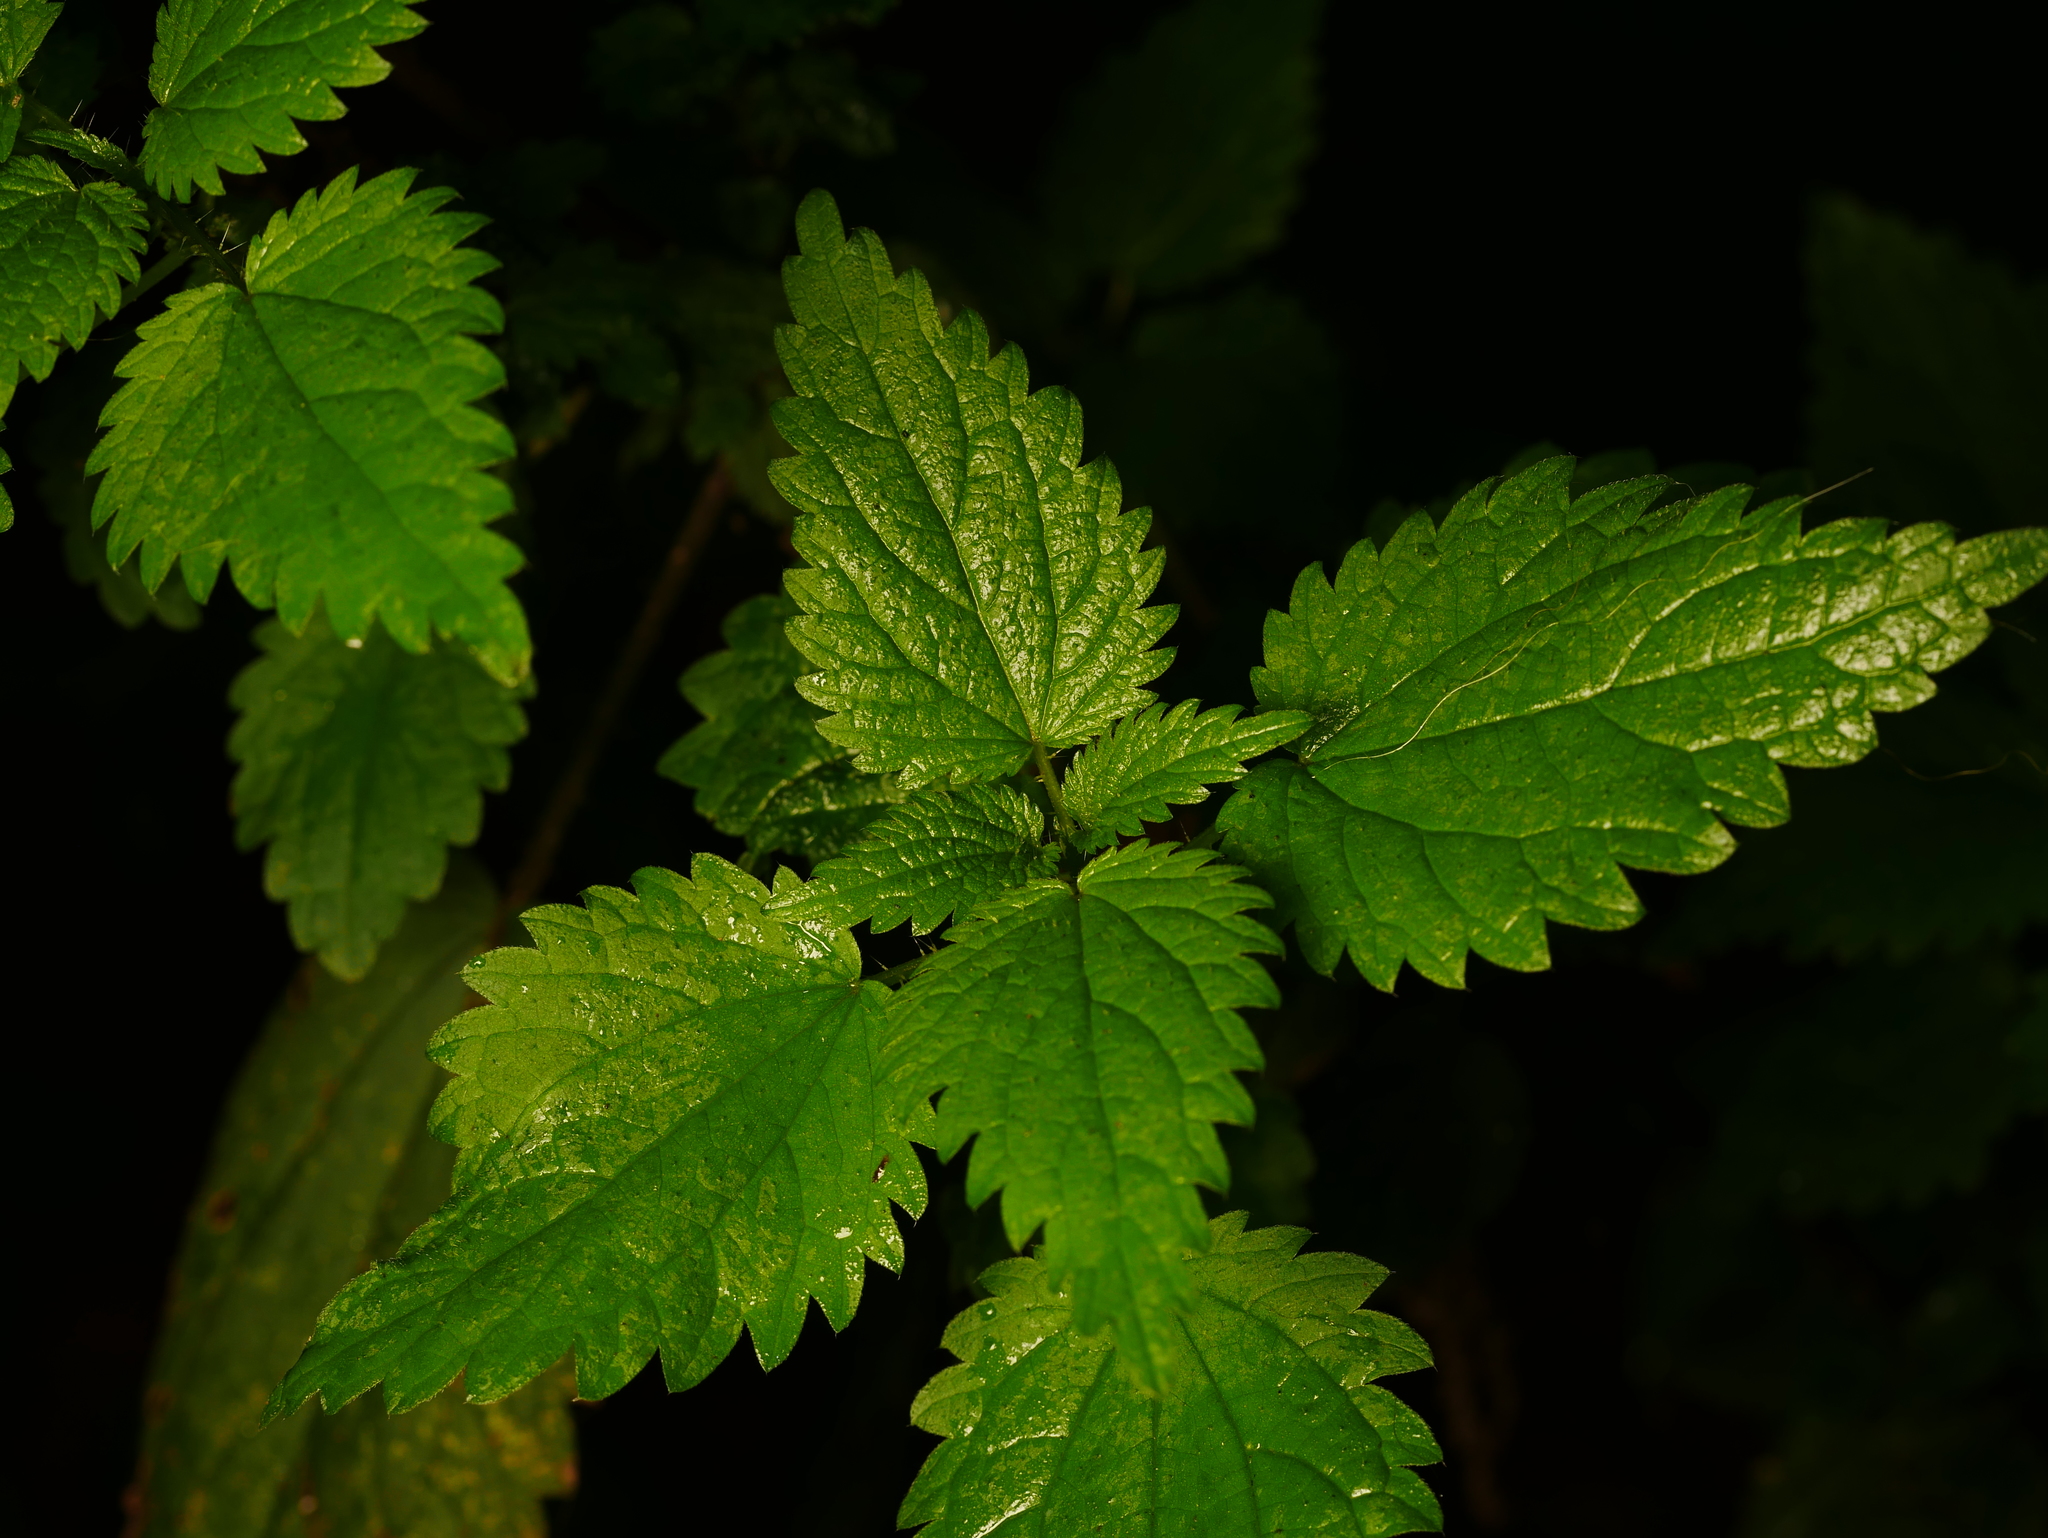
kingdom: Plantae
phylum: Tracheophyta
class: Magnoliopsida
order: Rosales
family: Urticaceae
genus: Urtica
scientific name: Urtica dioica
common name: Common nettle
